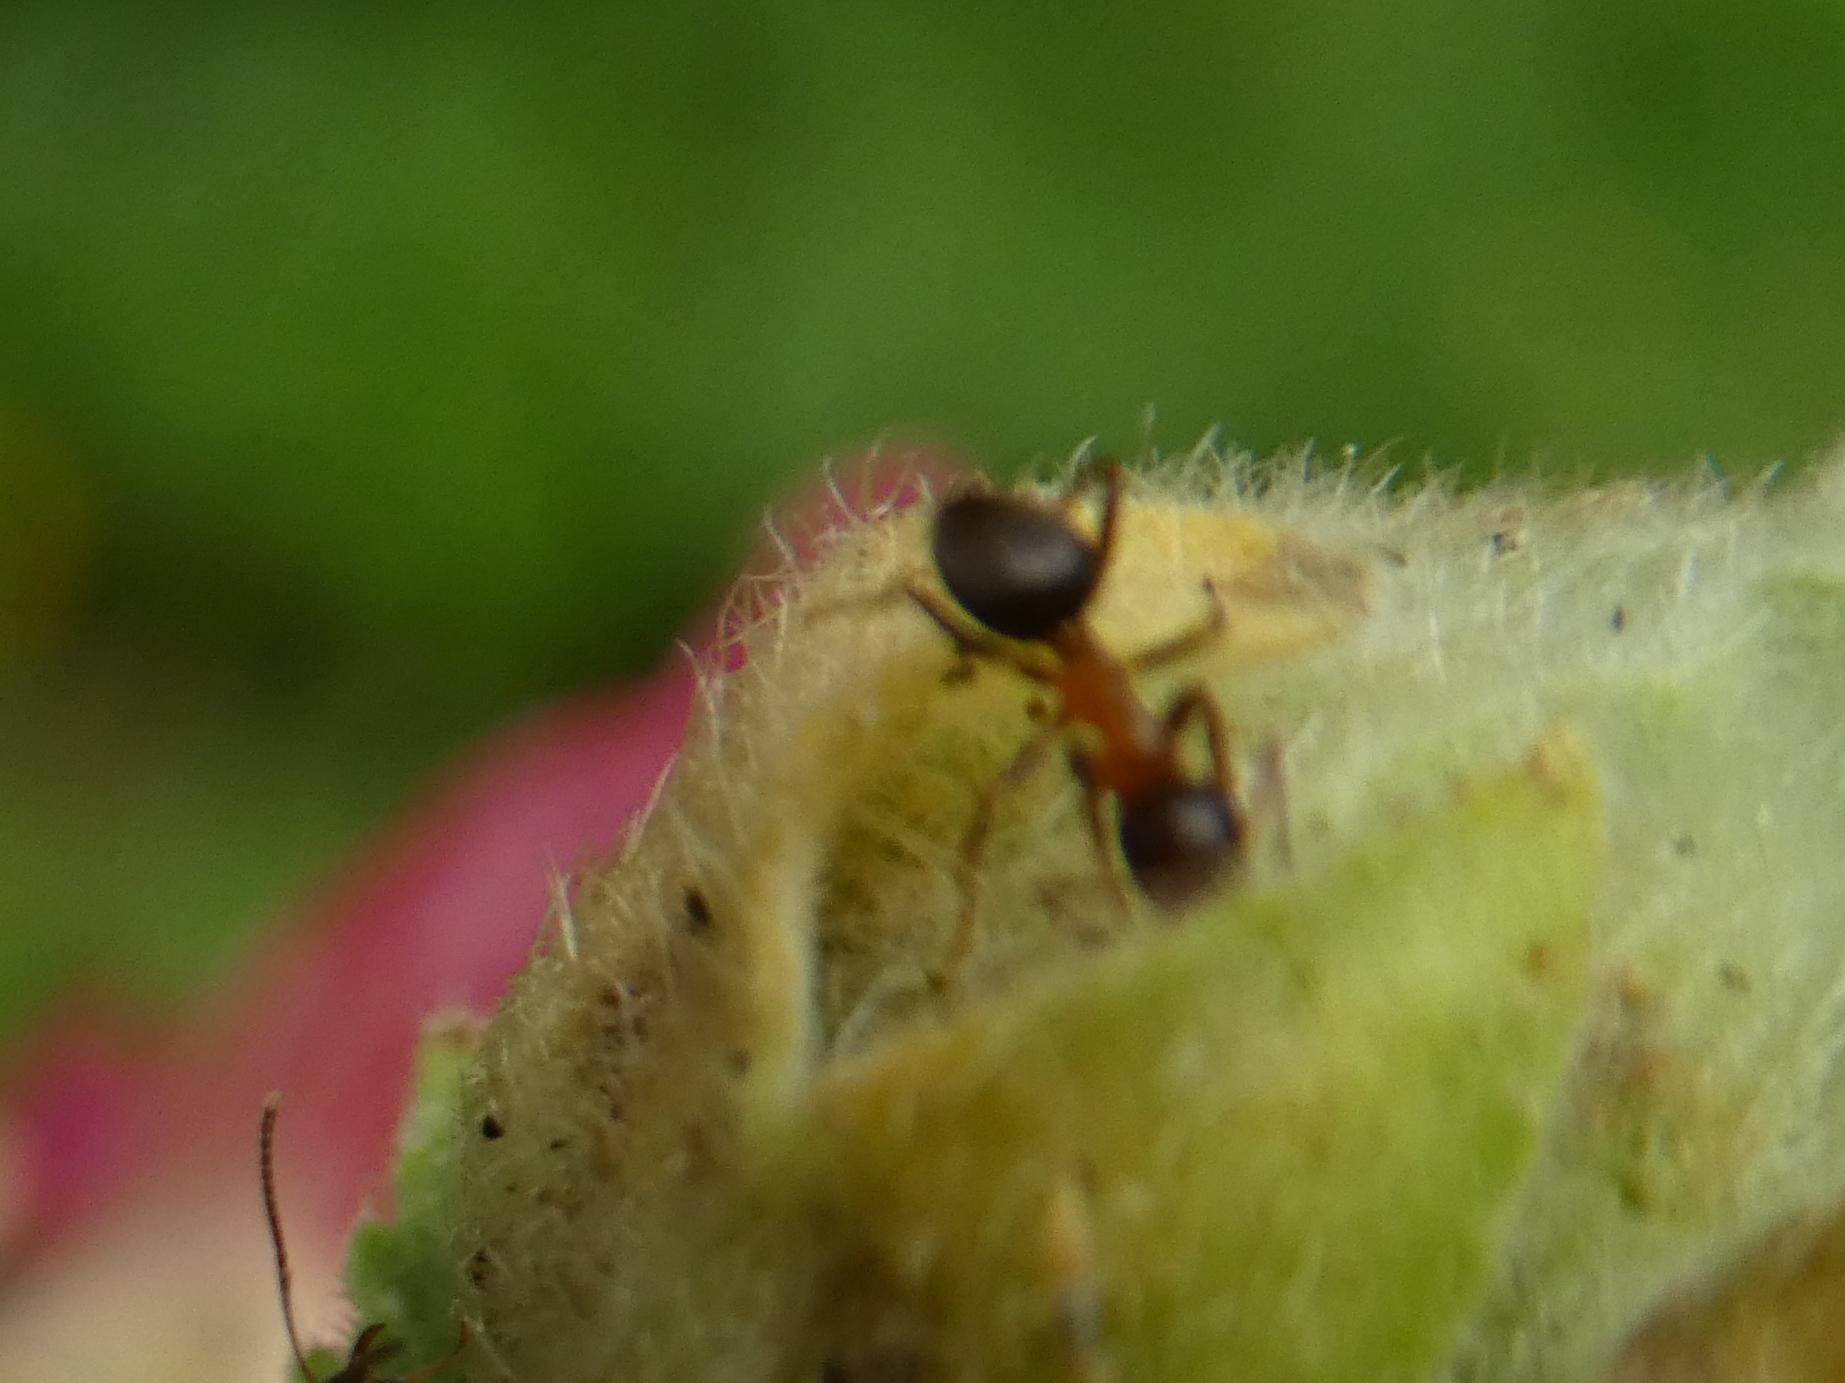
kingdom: Animalia
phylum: Arthropoda
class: Insecta
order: Hymenoptera
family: Formicidae
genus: Lasius
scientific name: Lasius emarginatus
